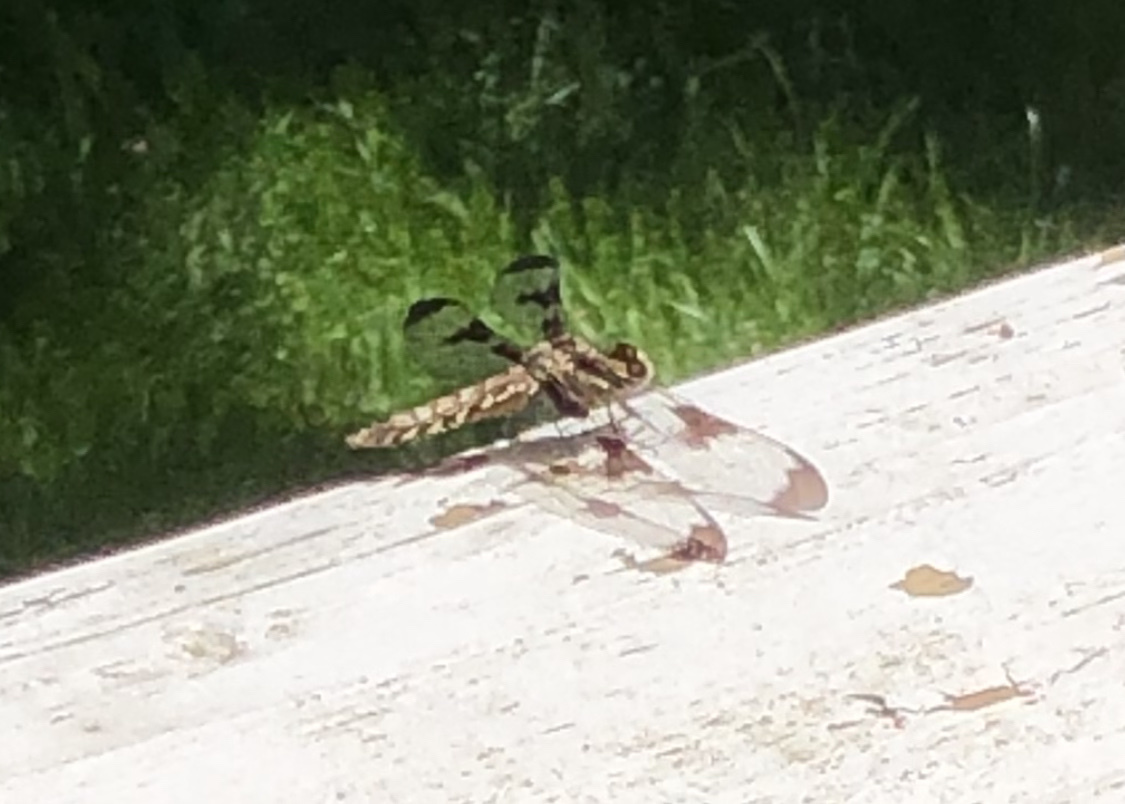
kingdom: Animalia
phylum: Arthropoda
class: Insecta
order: Odonata
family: Libellulidae
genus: Plathemis
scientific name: Plathemis lydia
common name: Common whitetail
